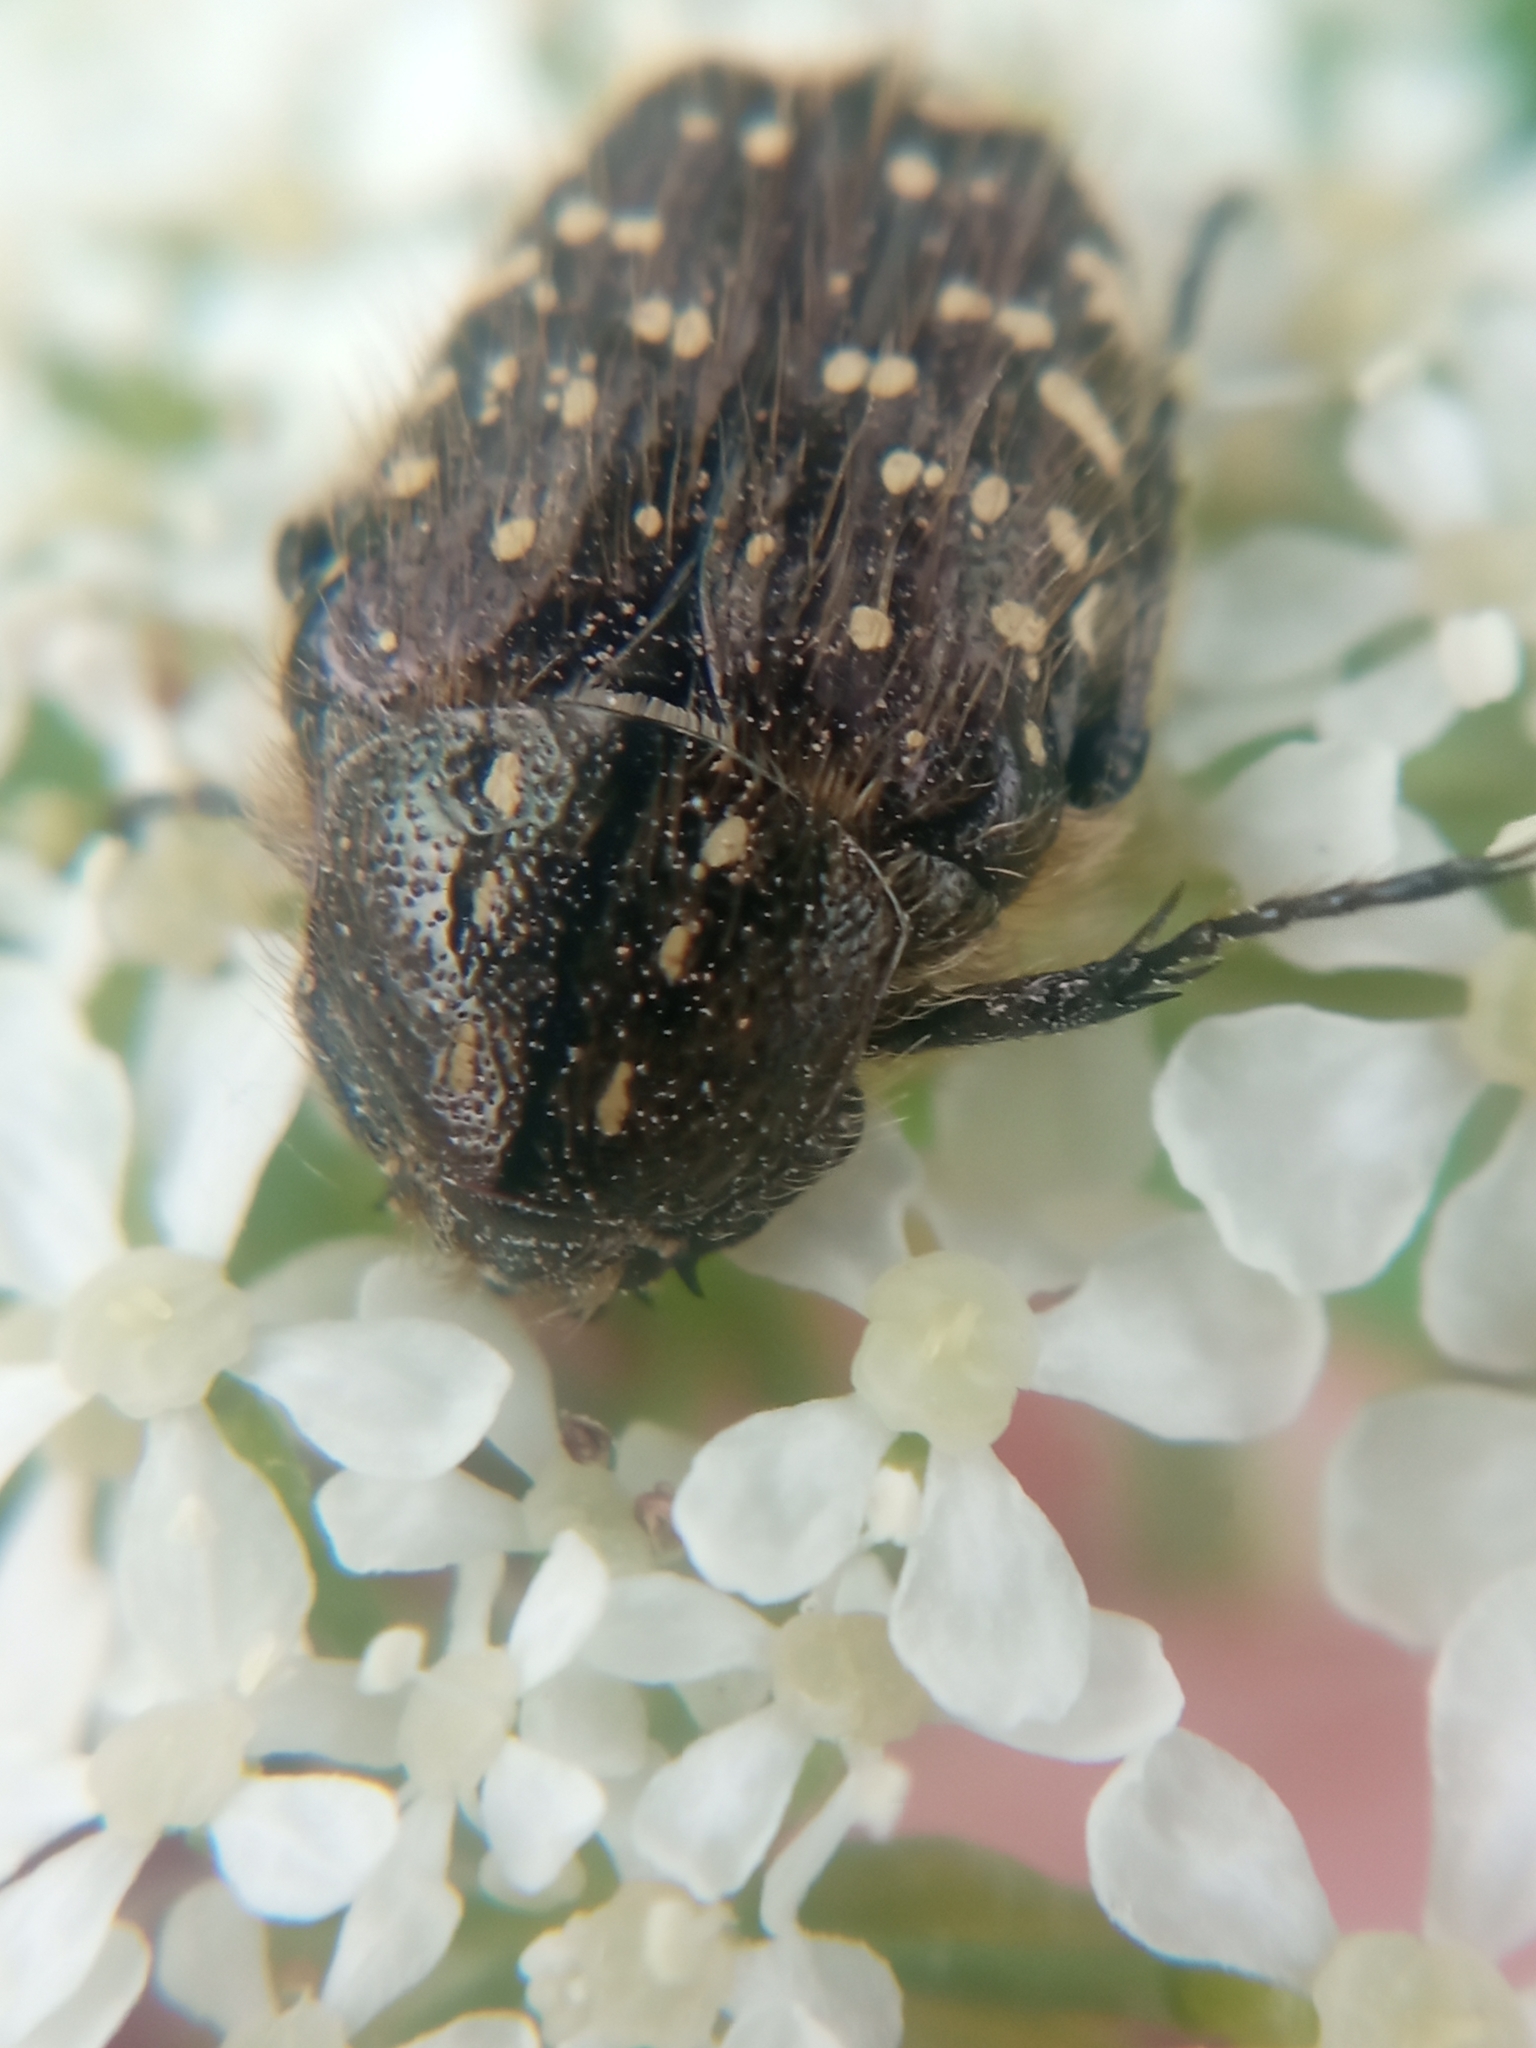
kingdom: Animalia
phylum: Arthropoda
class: Insecta
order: Coleoptera
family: Scarabaeidae
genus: Oxythyrea
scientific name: Oxythyrea funesta
